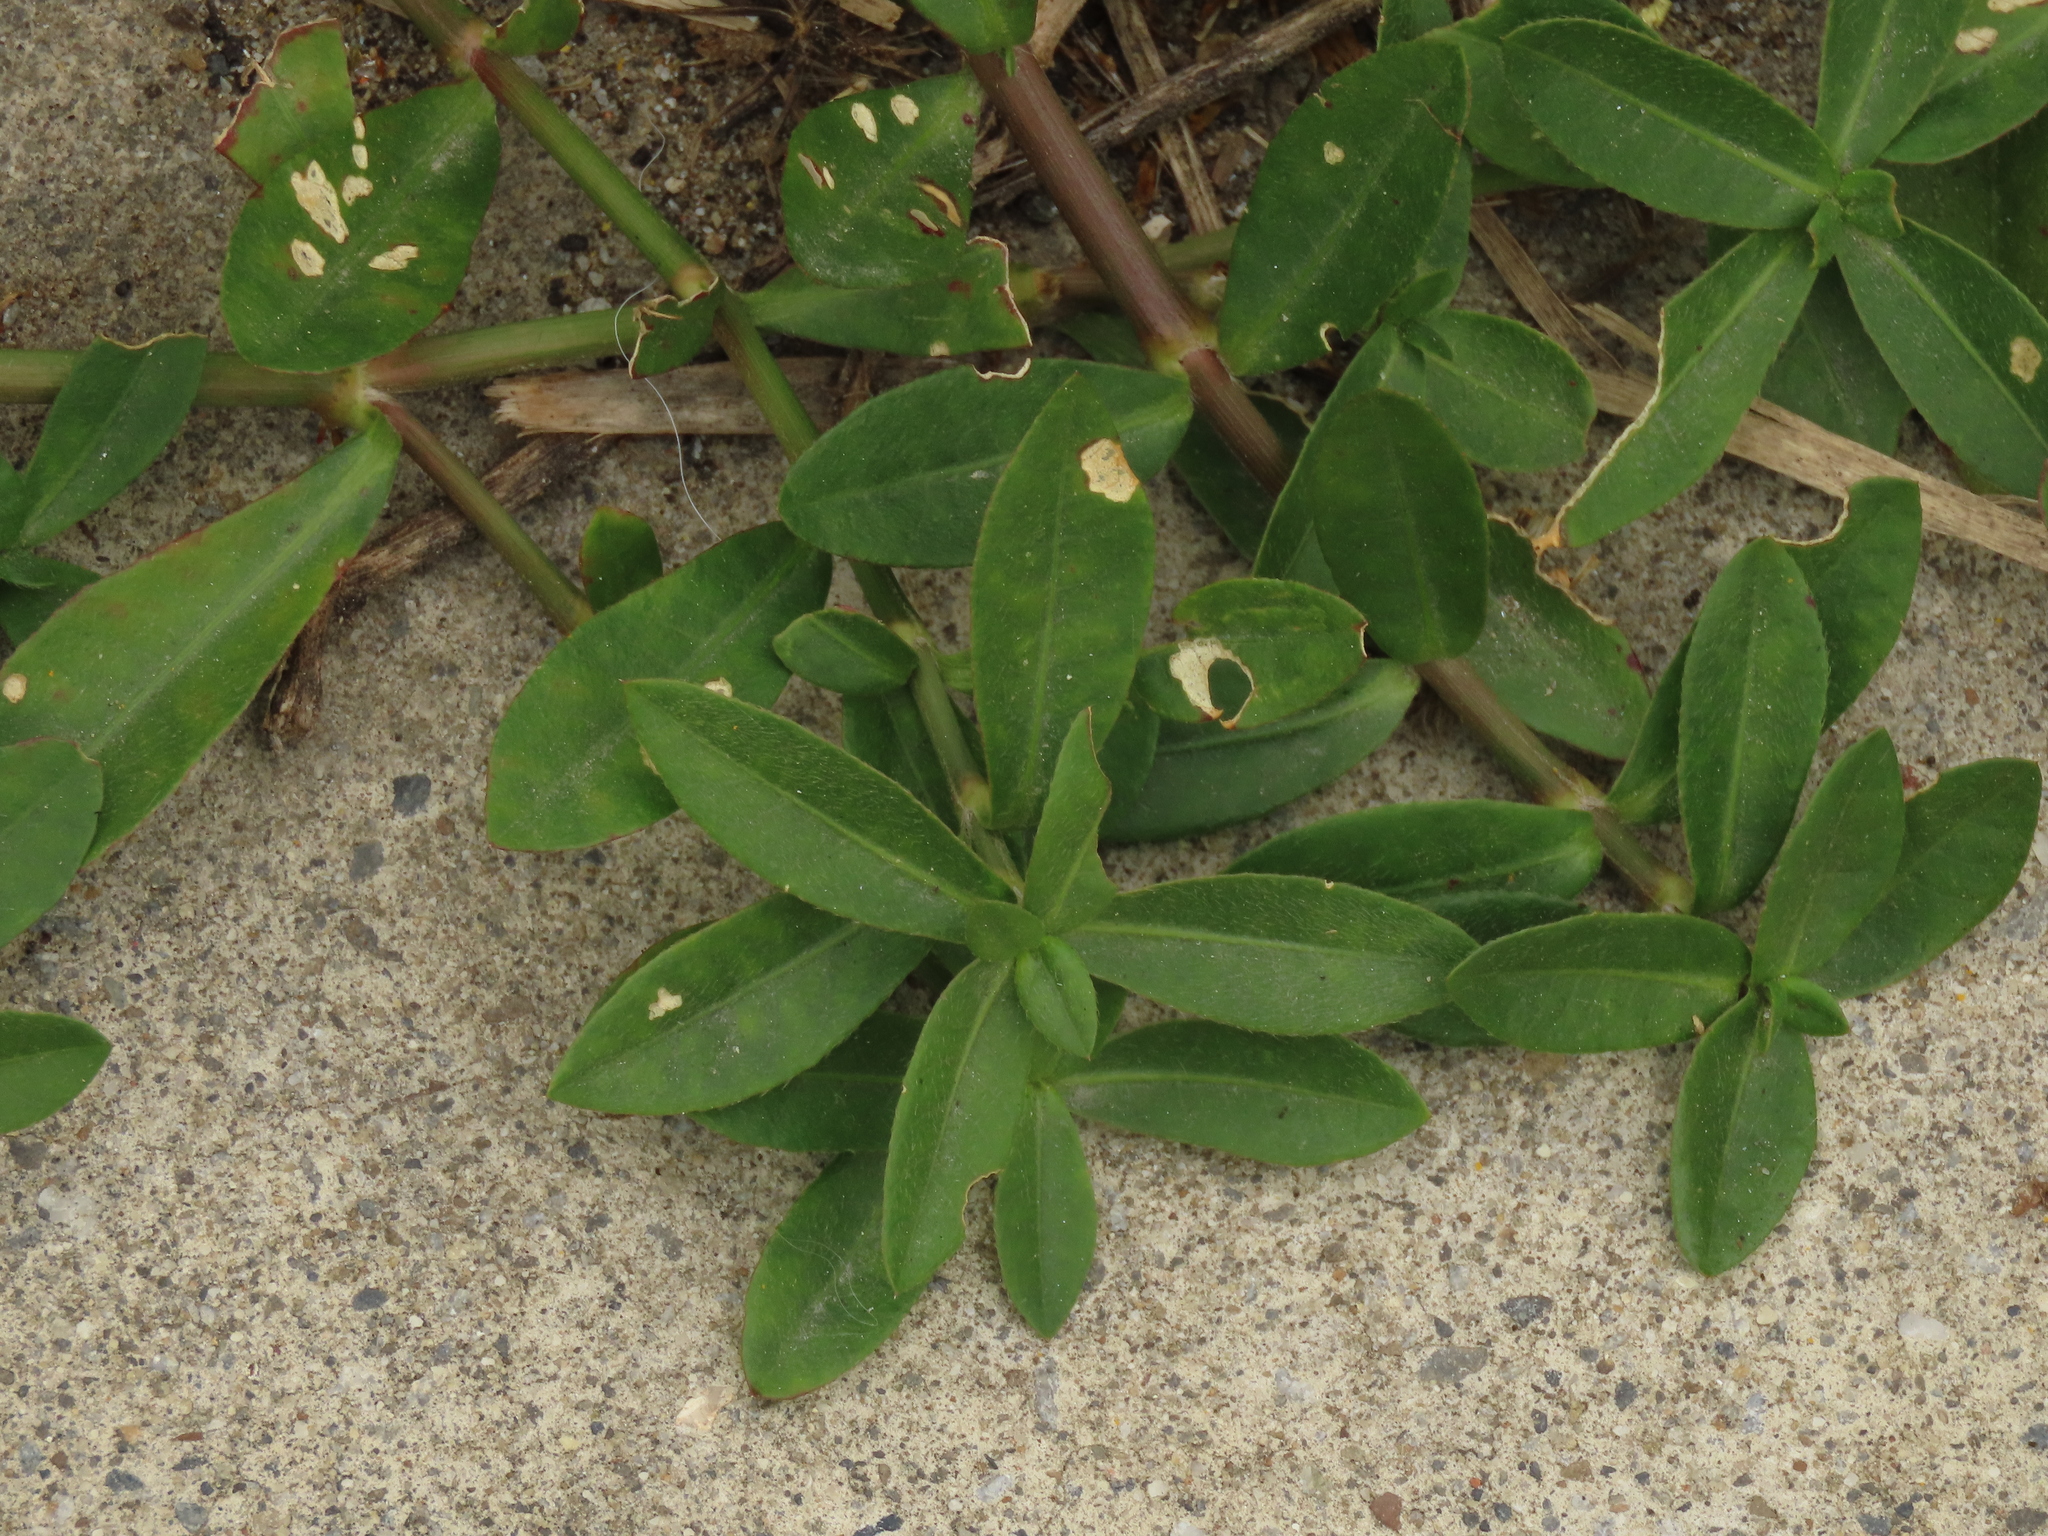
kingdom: Plantae
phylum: Tracheophyta
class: Magnoliopsida
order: Caryophyllales
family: Amaranthaceae
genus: Alternanthera
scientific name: Alternanthera philoxeroides
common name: Alligatorweed
